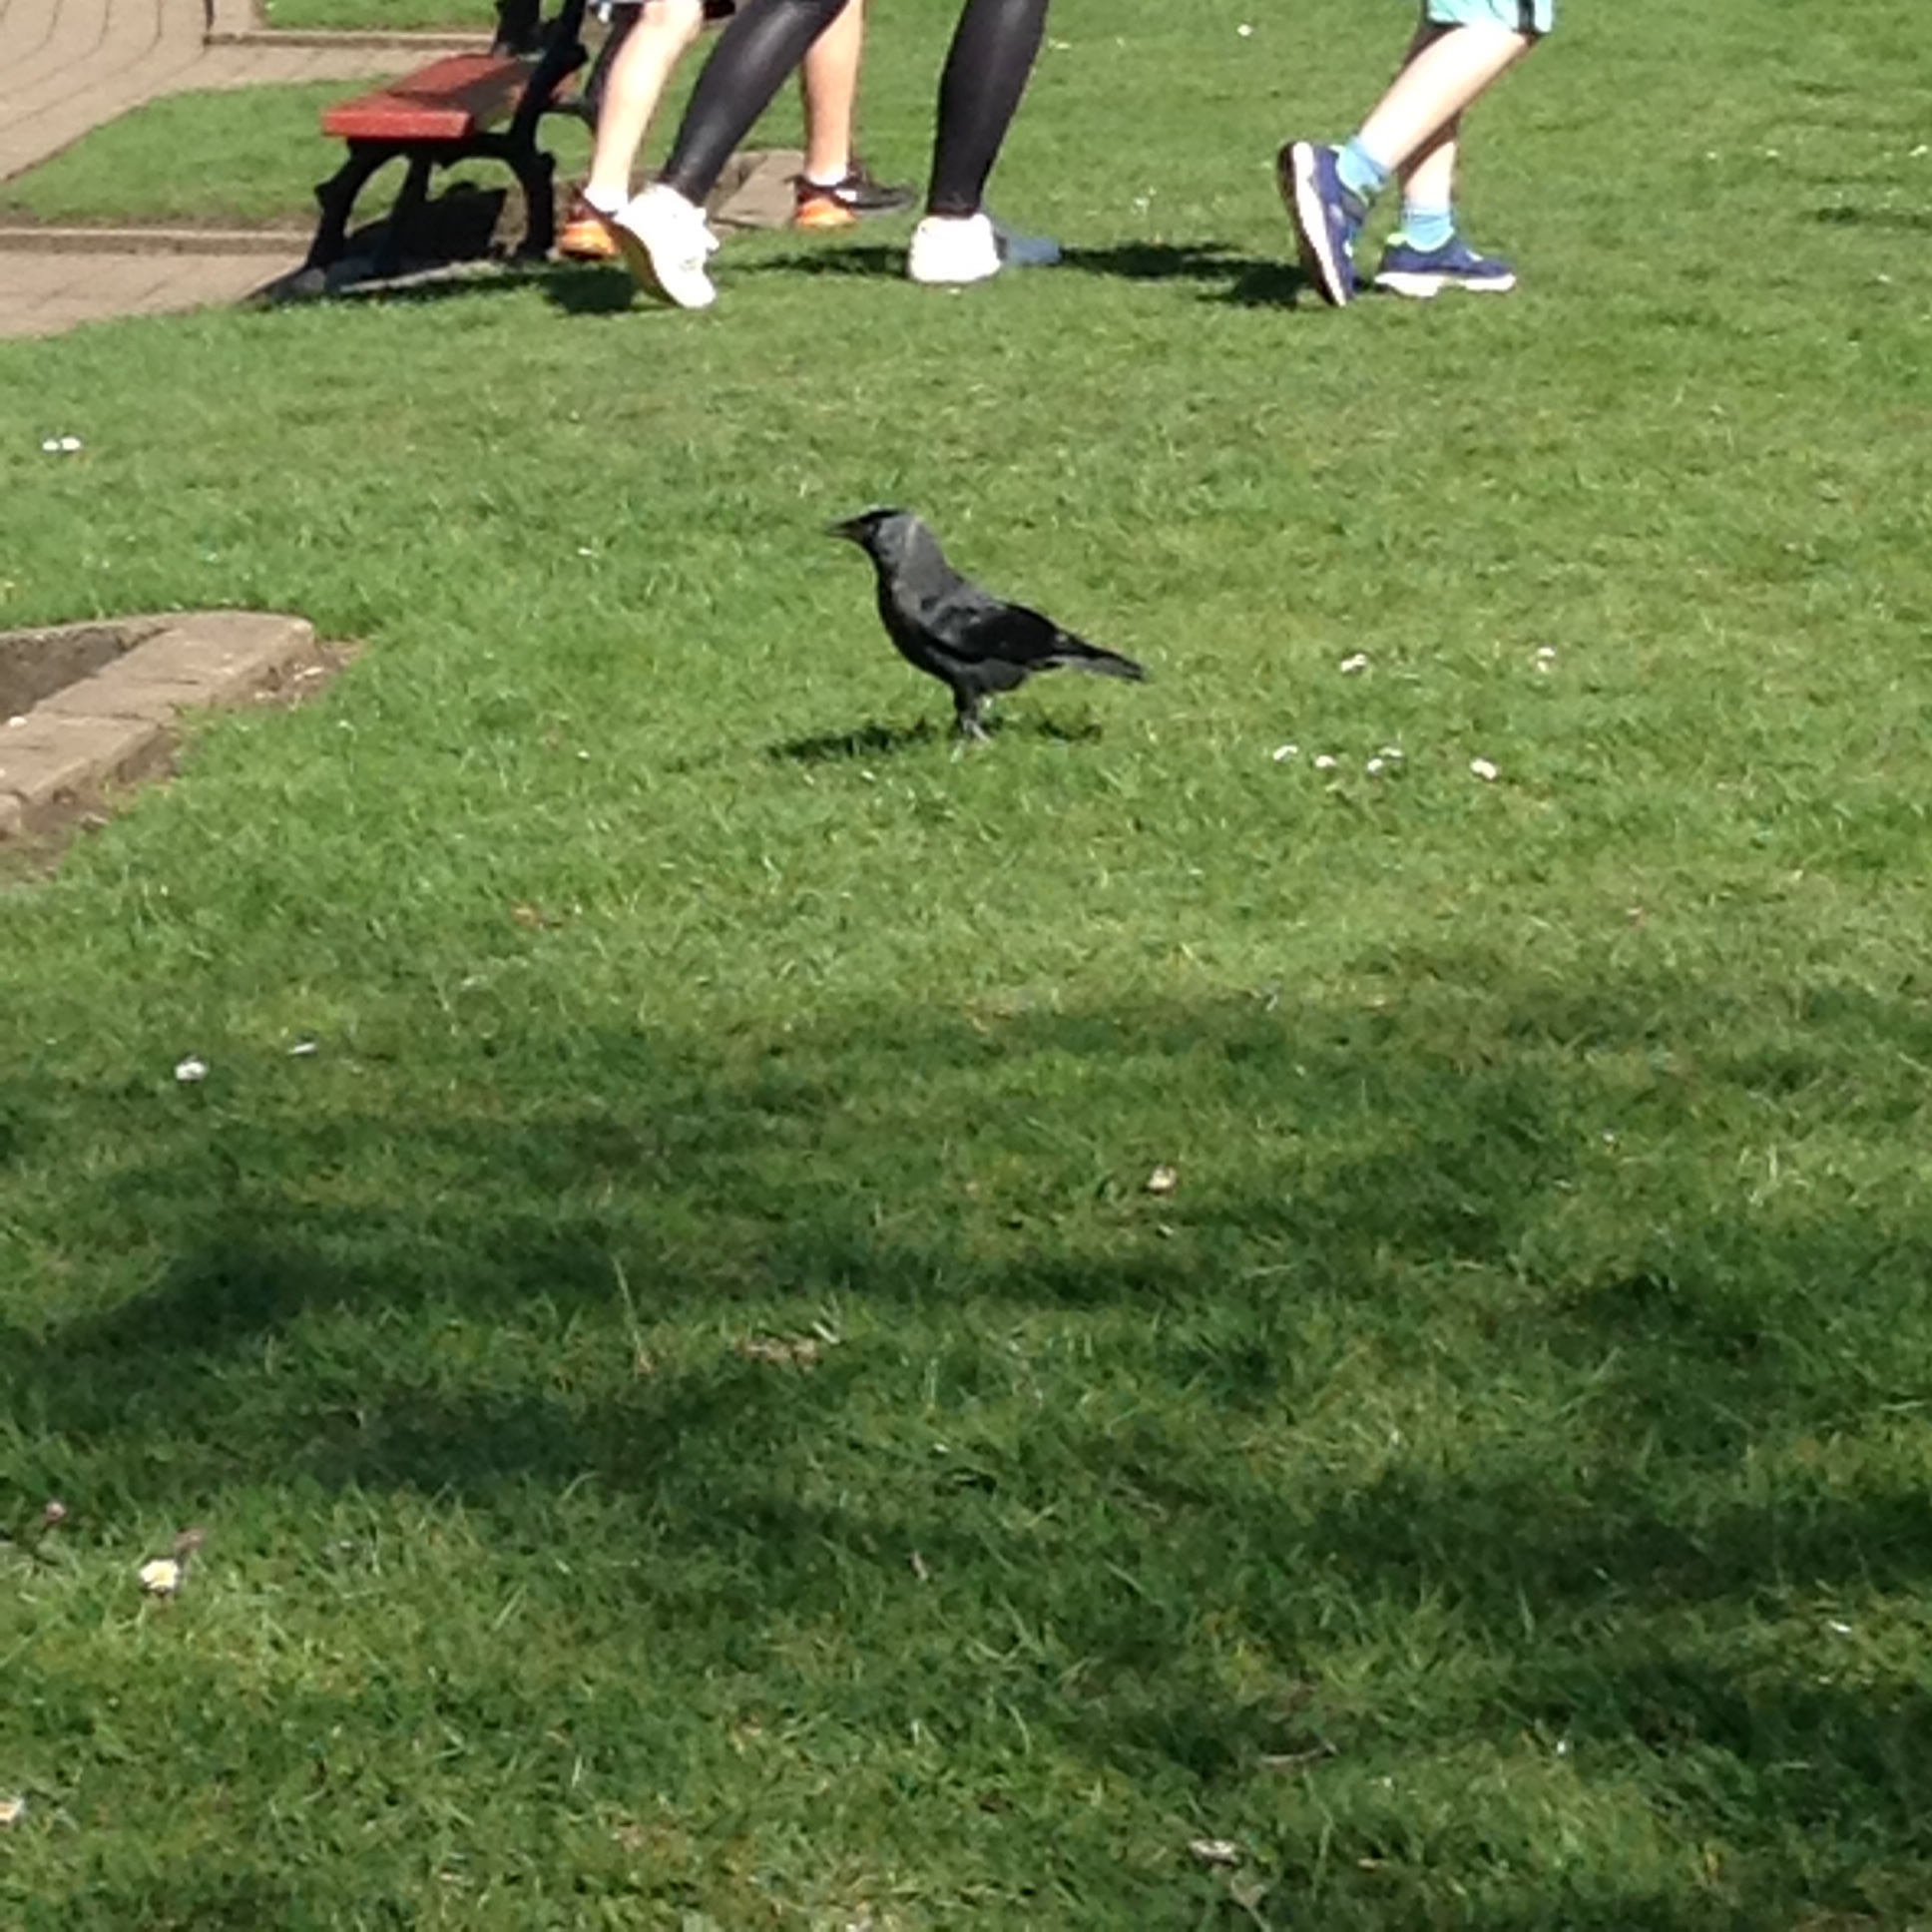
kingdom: Animalia
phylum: Chordata
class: Aves
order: Passeriformes
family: Corvidae
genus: Coloeus
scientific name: Coloeus monedula
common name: Western jackdaw
